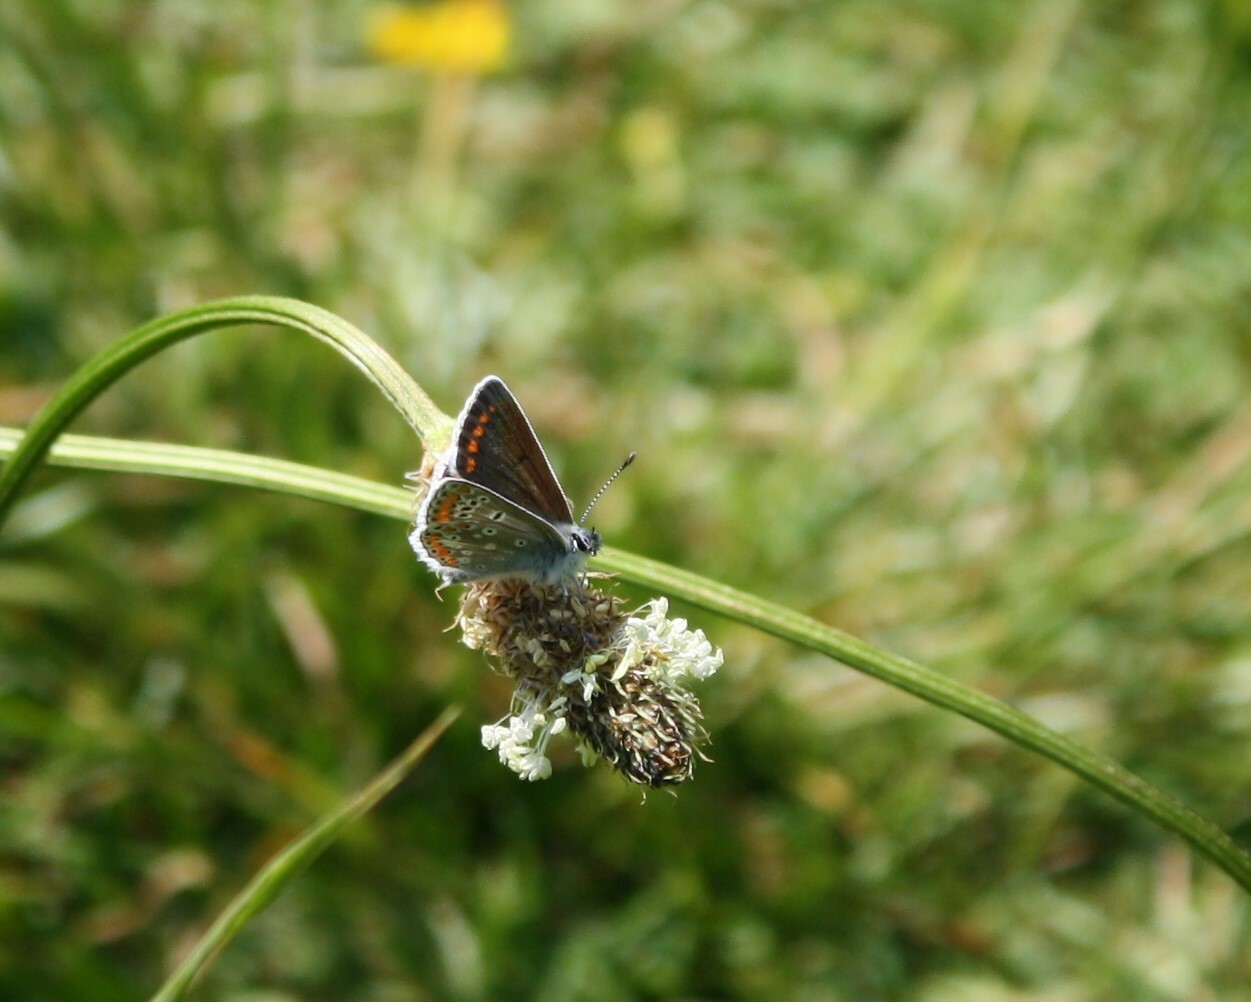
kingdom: Animalia
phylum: Arthropoda
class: Insecta
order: Lepidoptera
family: Lycaenidae
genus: Polyommatus
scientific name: Polyommatus icarus
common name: Common blue
